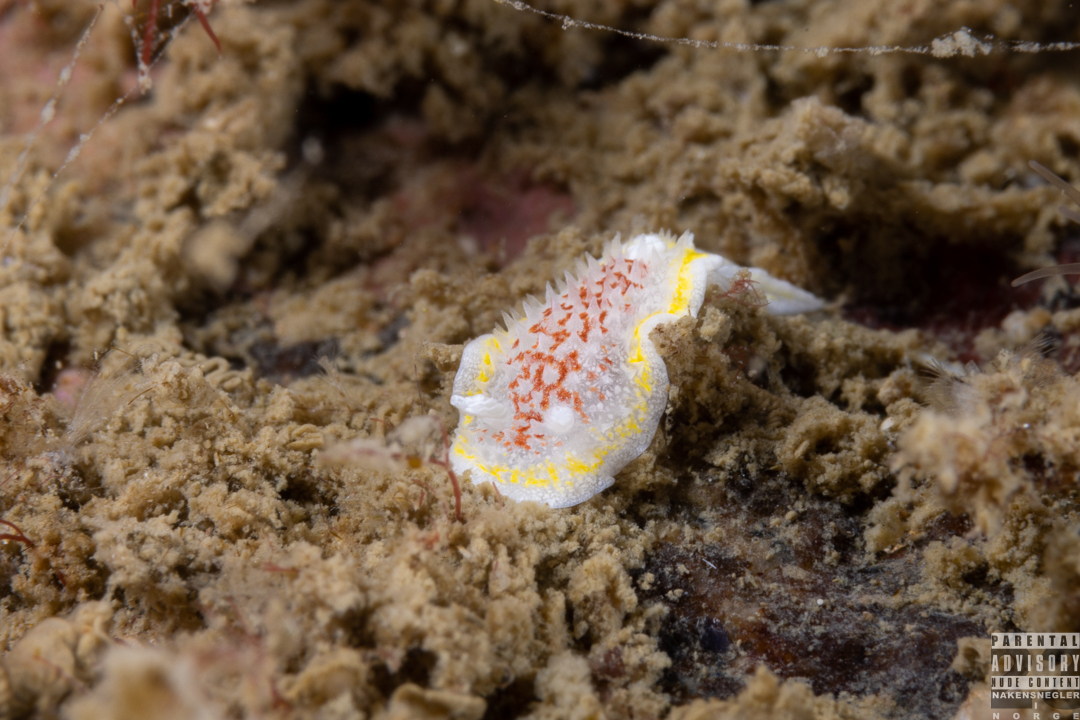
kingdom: Animalia
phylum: Mollusca
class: Gastropoda
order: Nudibranchia
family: Calycidorididae
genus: Diaphorodoris
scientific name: Diaphorodoris luteocincta
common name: Fried egg nudibranch
